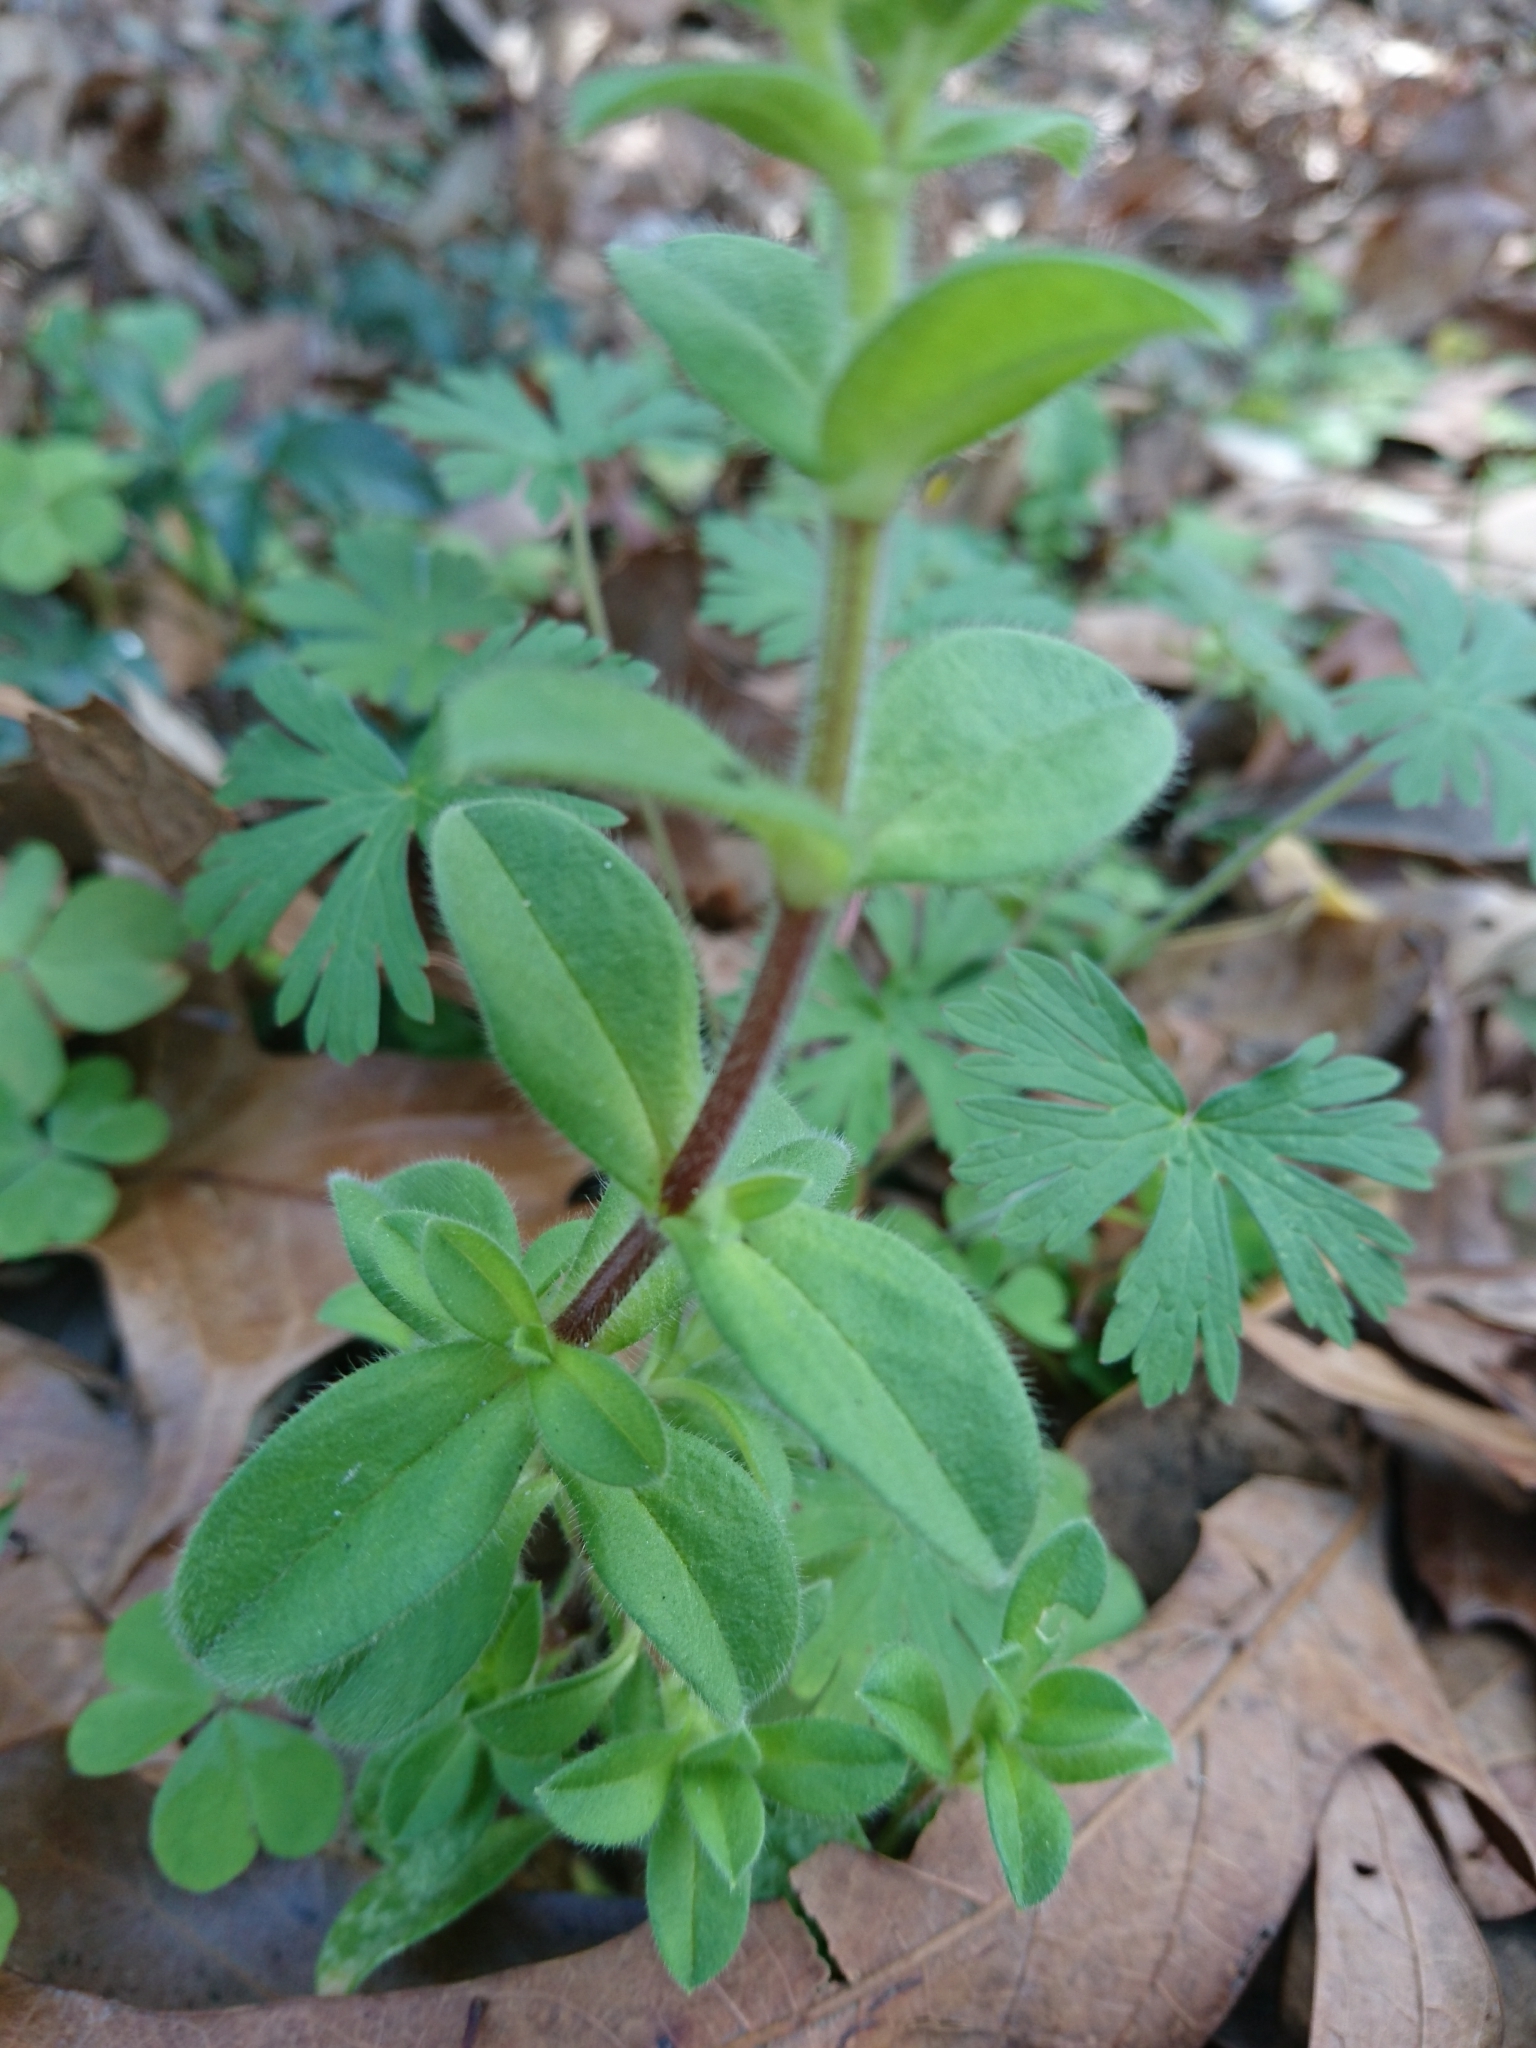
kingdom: Plantae
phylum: Tracheophyta
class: Magnoliopsida
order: Caryophyllales
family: Caryophyllaceae
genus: Cerastium
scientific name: Cerastium glomeratum
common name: Sticky chickweed
